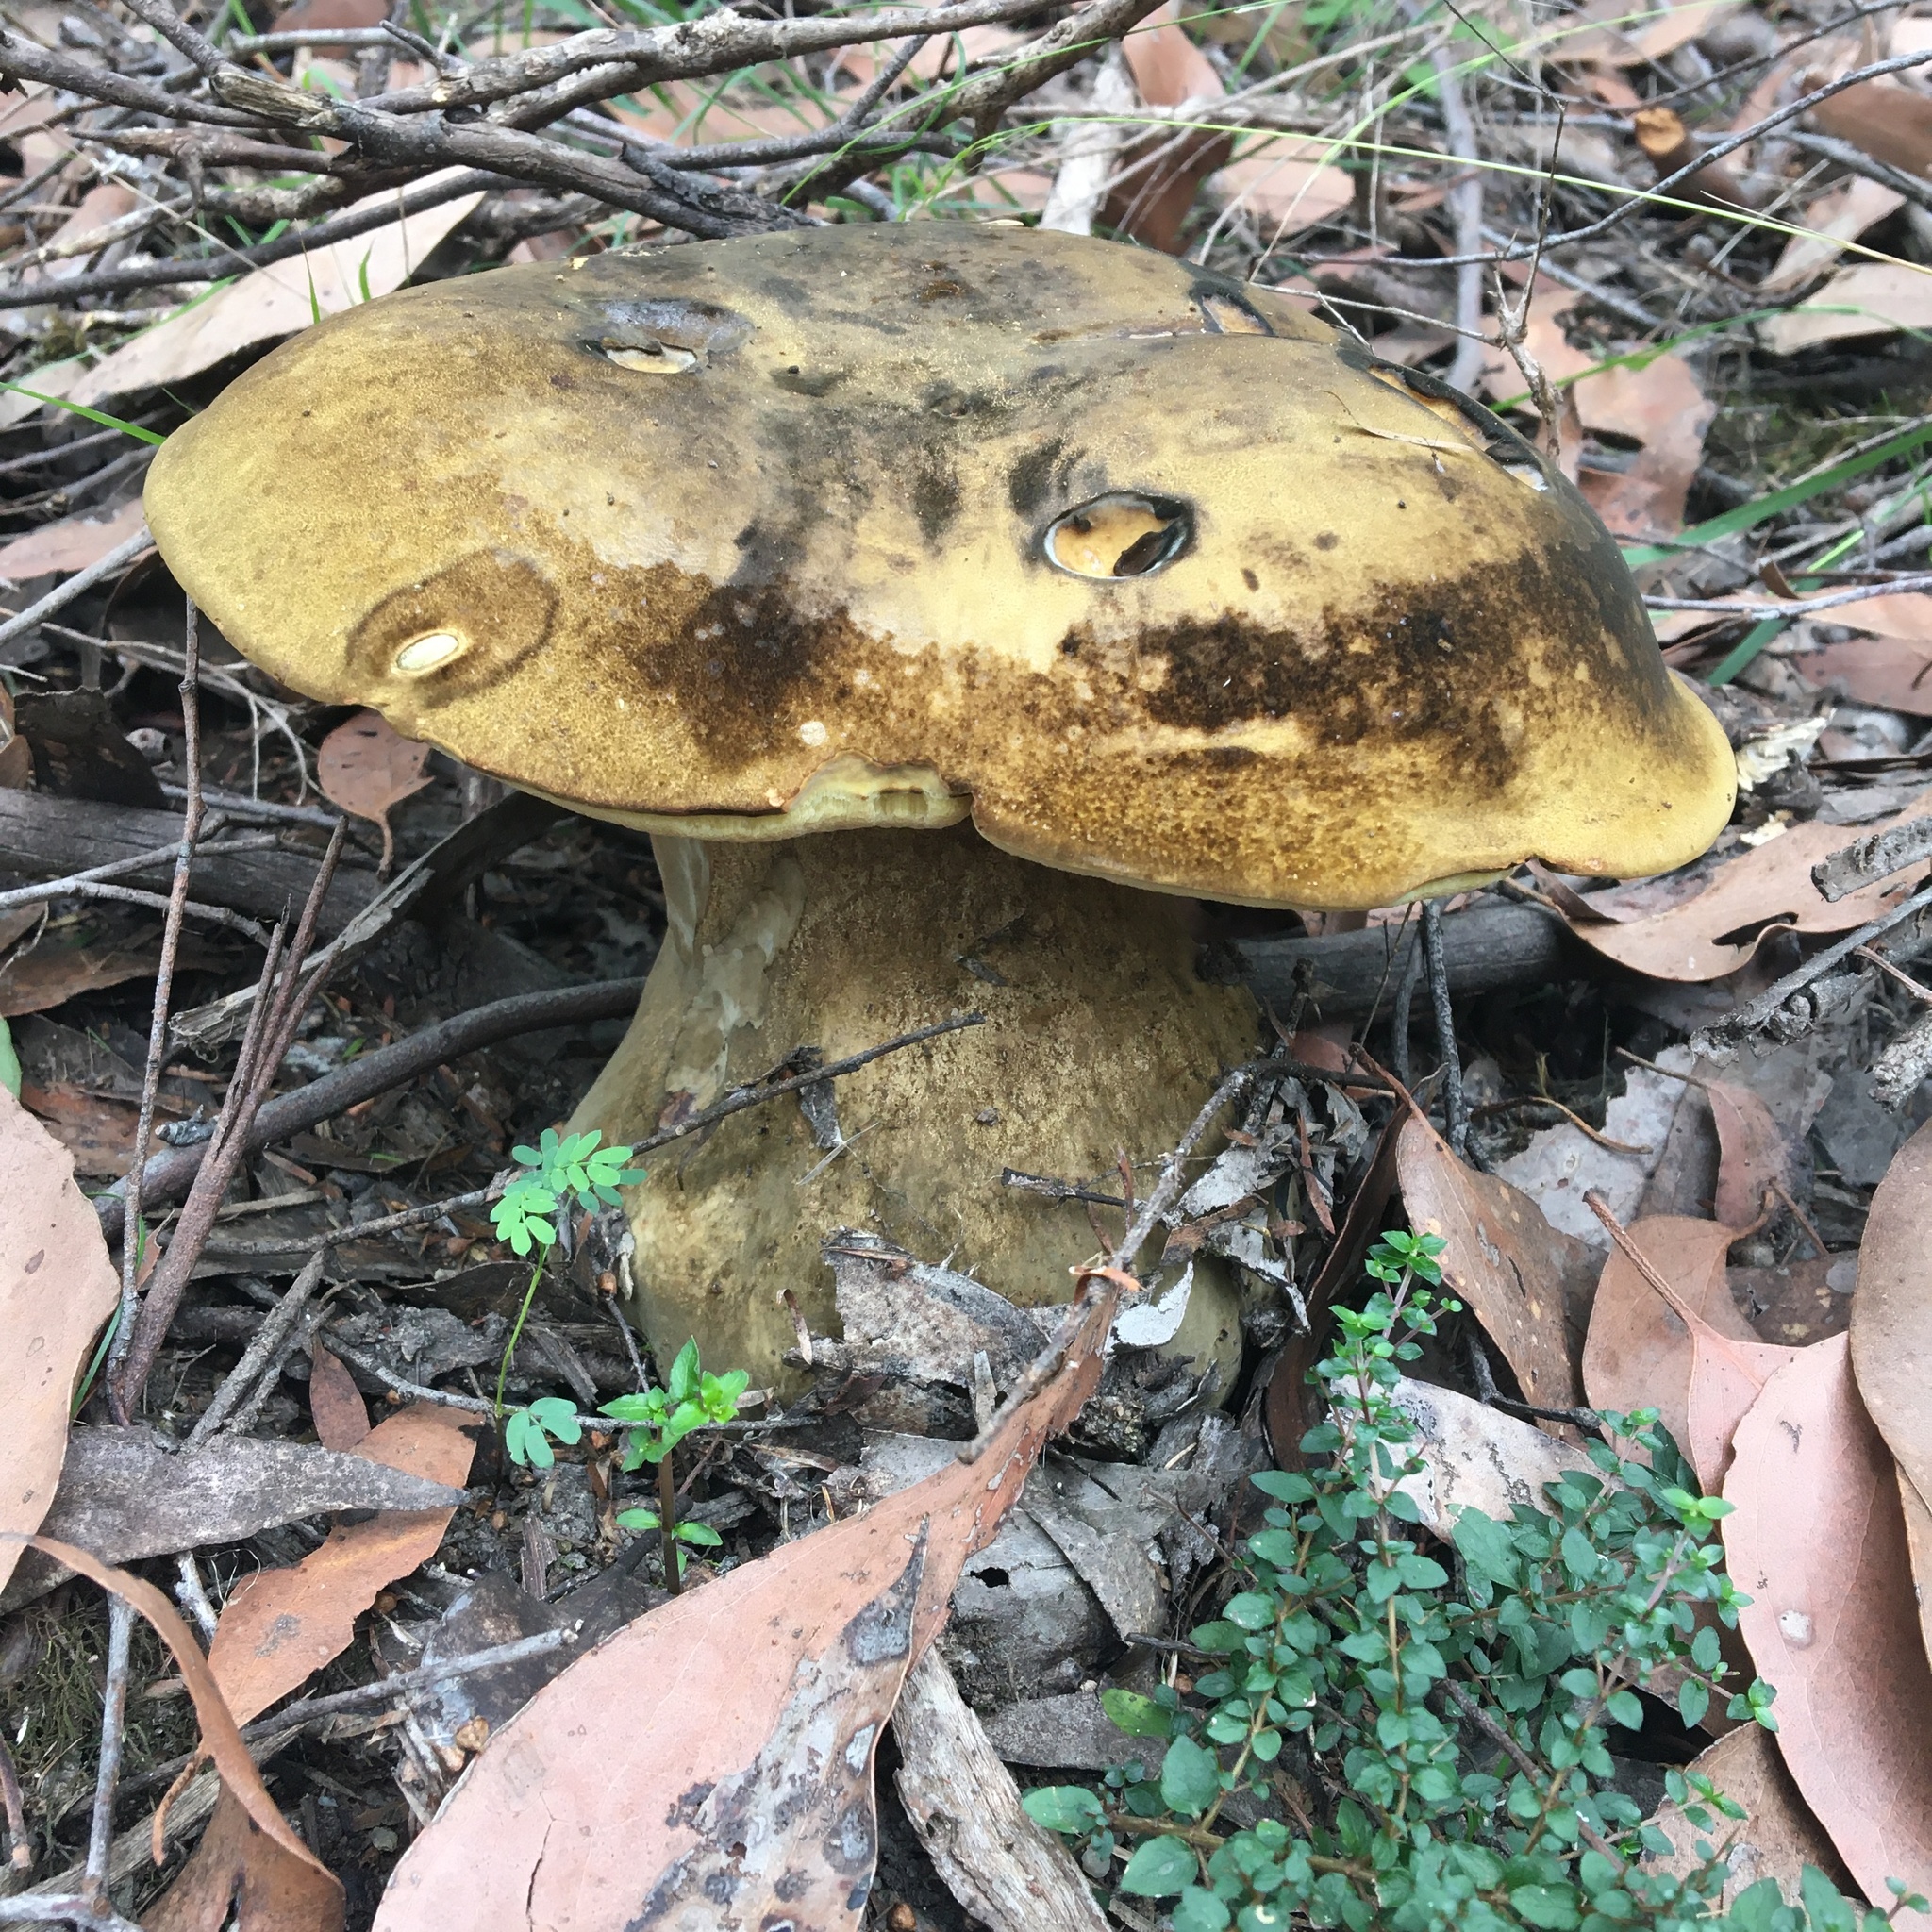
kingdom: Fungi
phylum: Basidiomycota
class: Agaricomycetes
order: Boletales
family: Boletinellaceae
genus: Phlebopus
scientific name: Phlebopus marginatus
